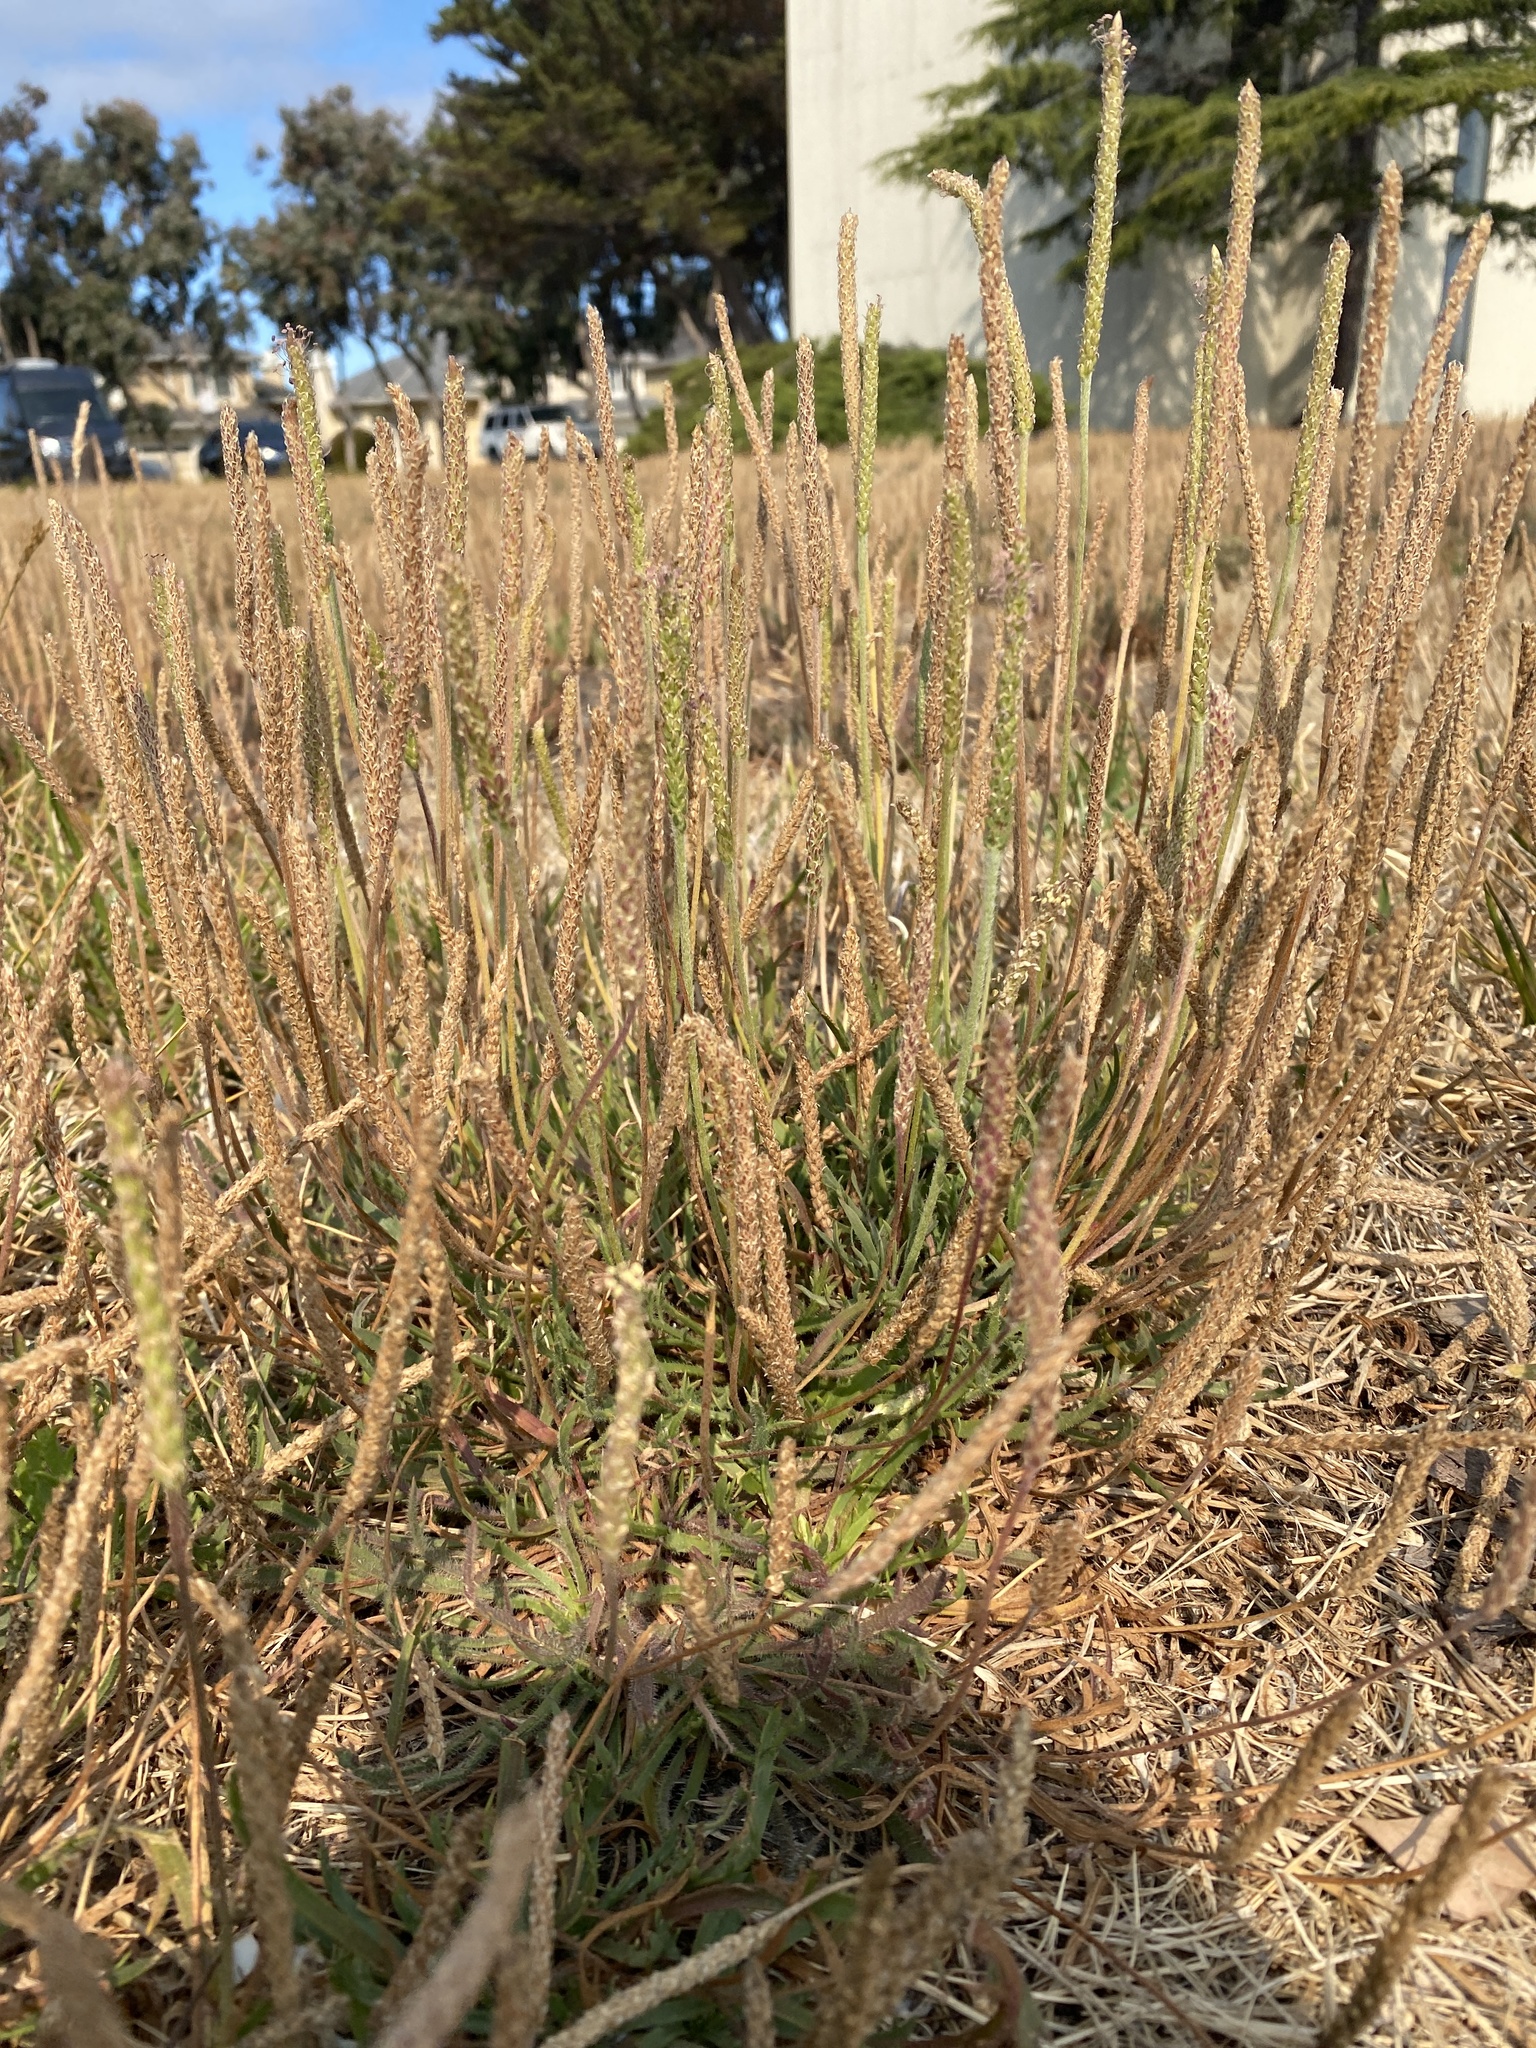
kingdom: Plantae
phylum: Tracheophyta
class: Magnoliopsida
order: Lamiales
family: Plantaginaceae
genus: Plantago
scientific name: Plantago coronopus
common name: Buck's-horn plantain
